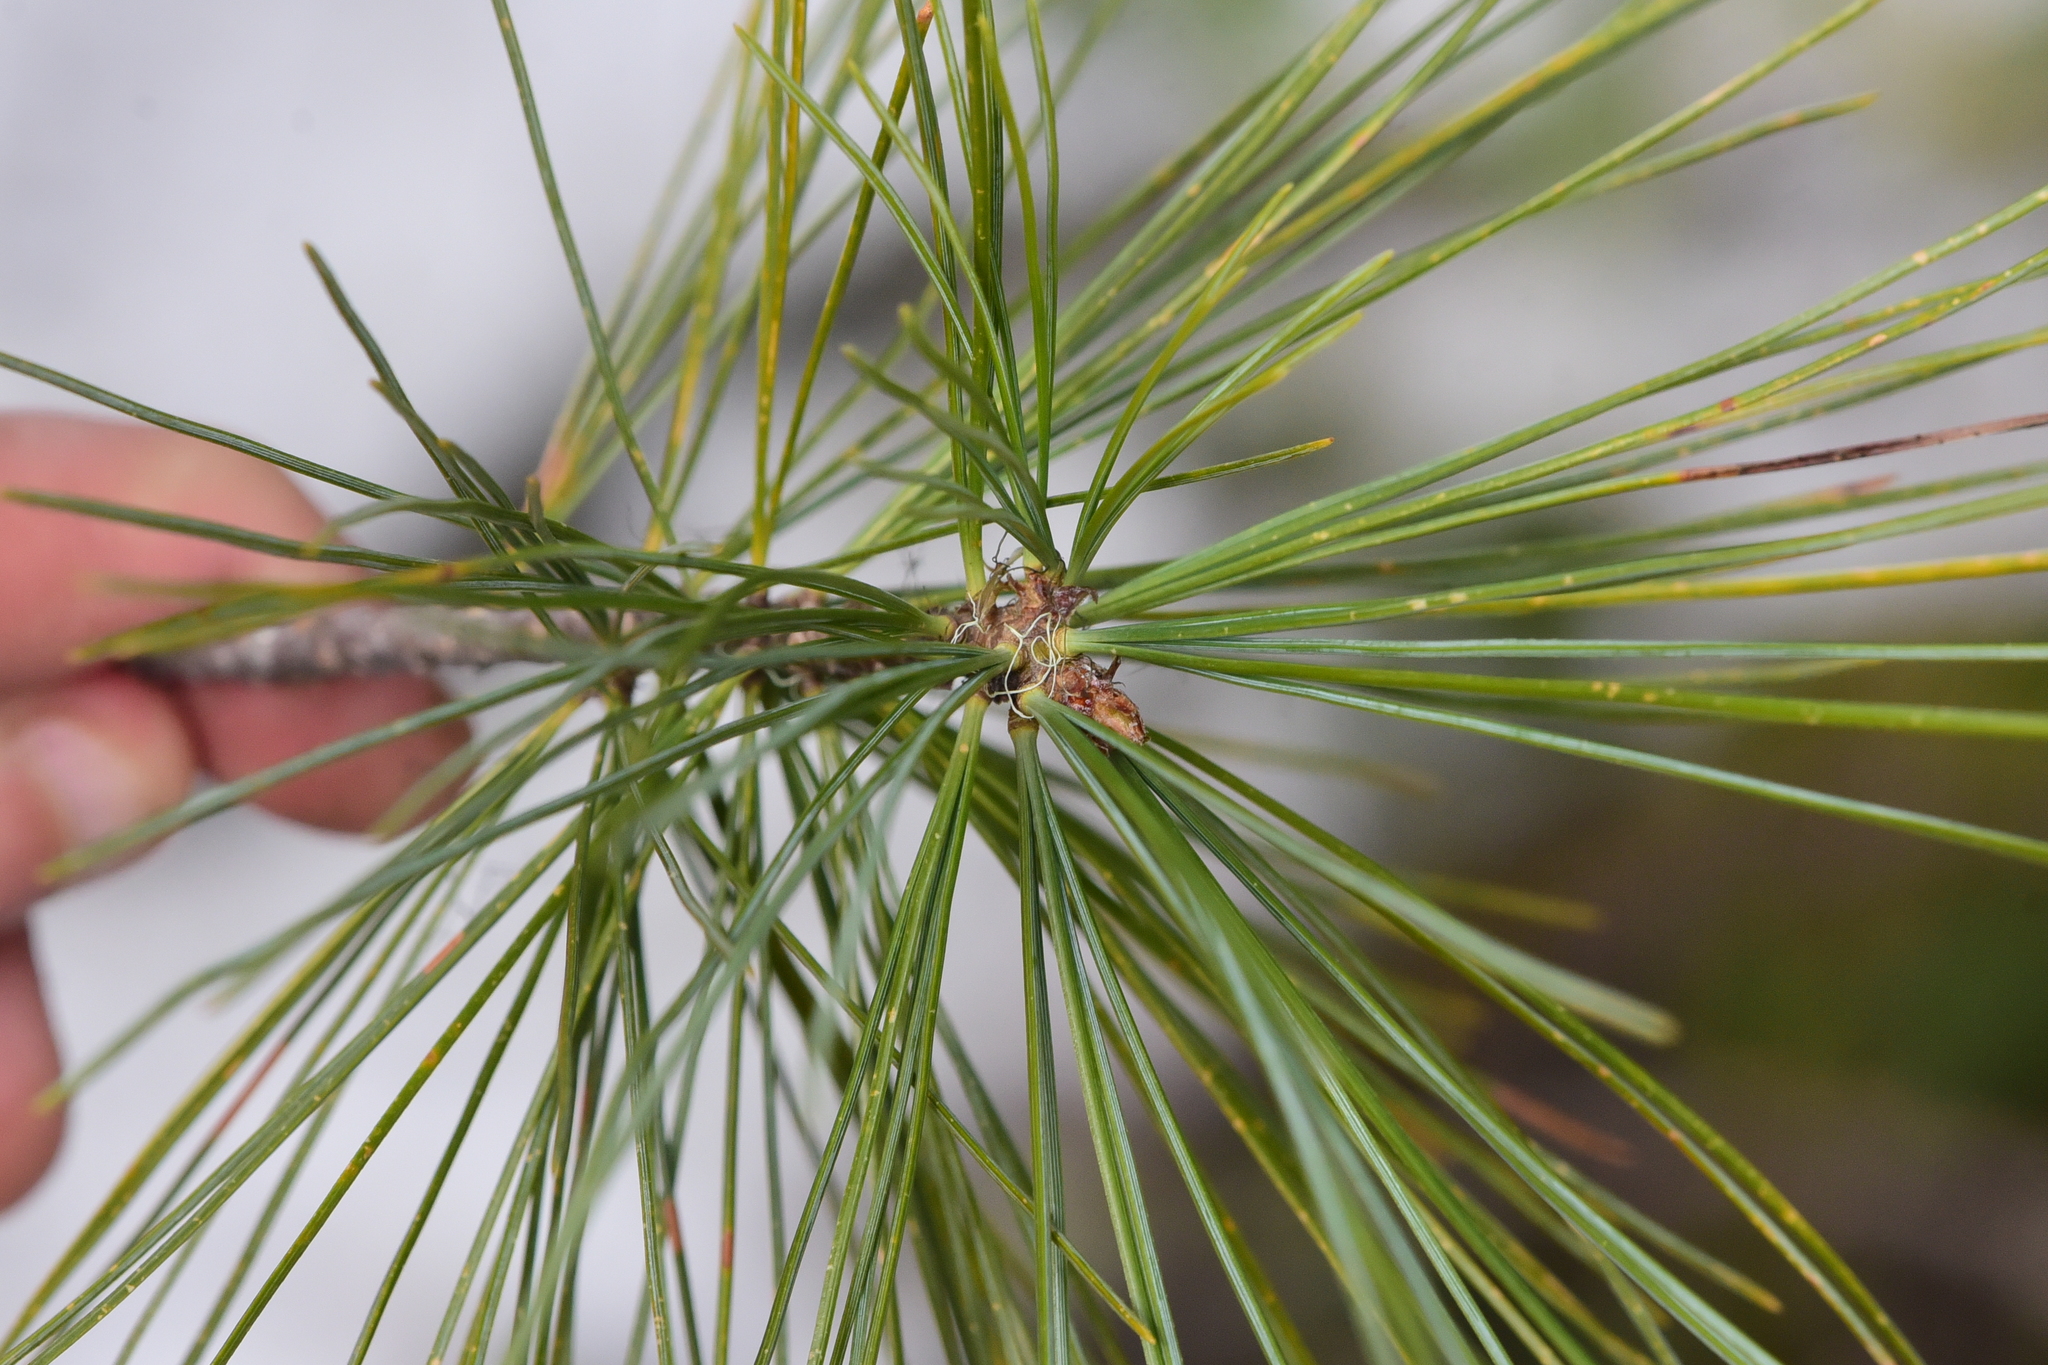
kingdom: Plantae
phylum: Tracheophyta
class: Pinopsida
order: Pinales
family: Pinaceae
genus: Pinus
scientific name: Pinus monticola
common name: Western white pine
